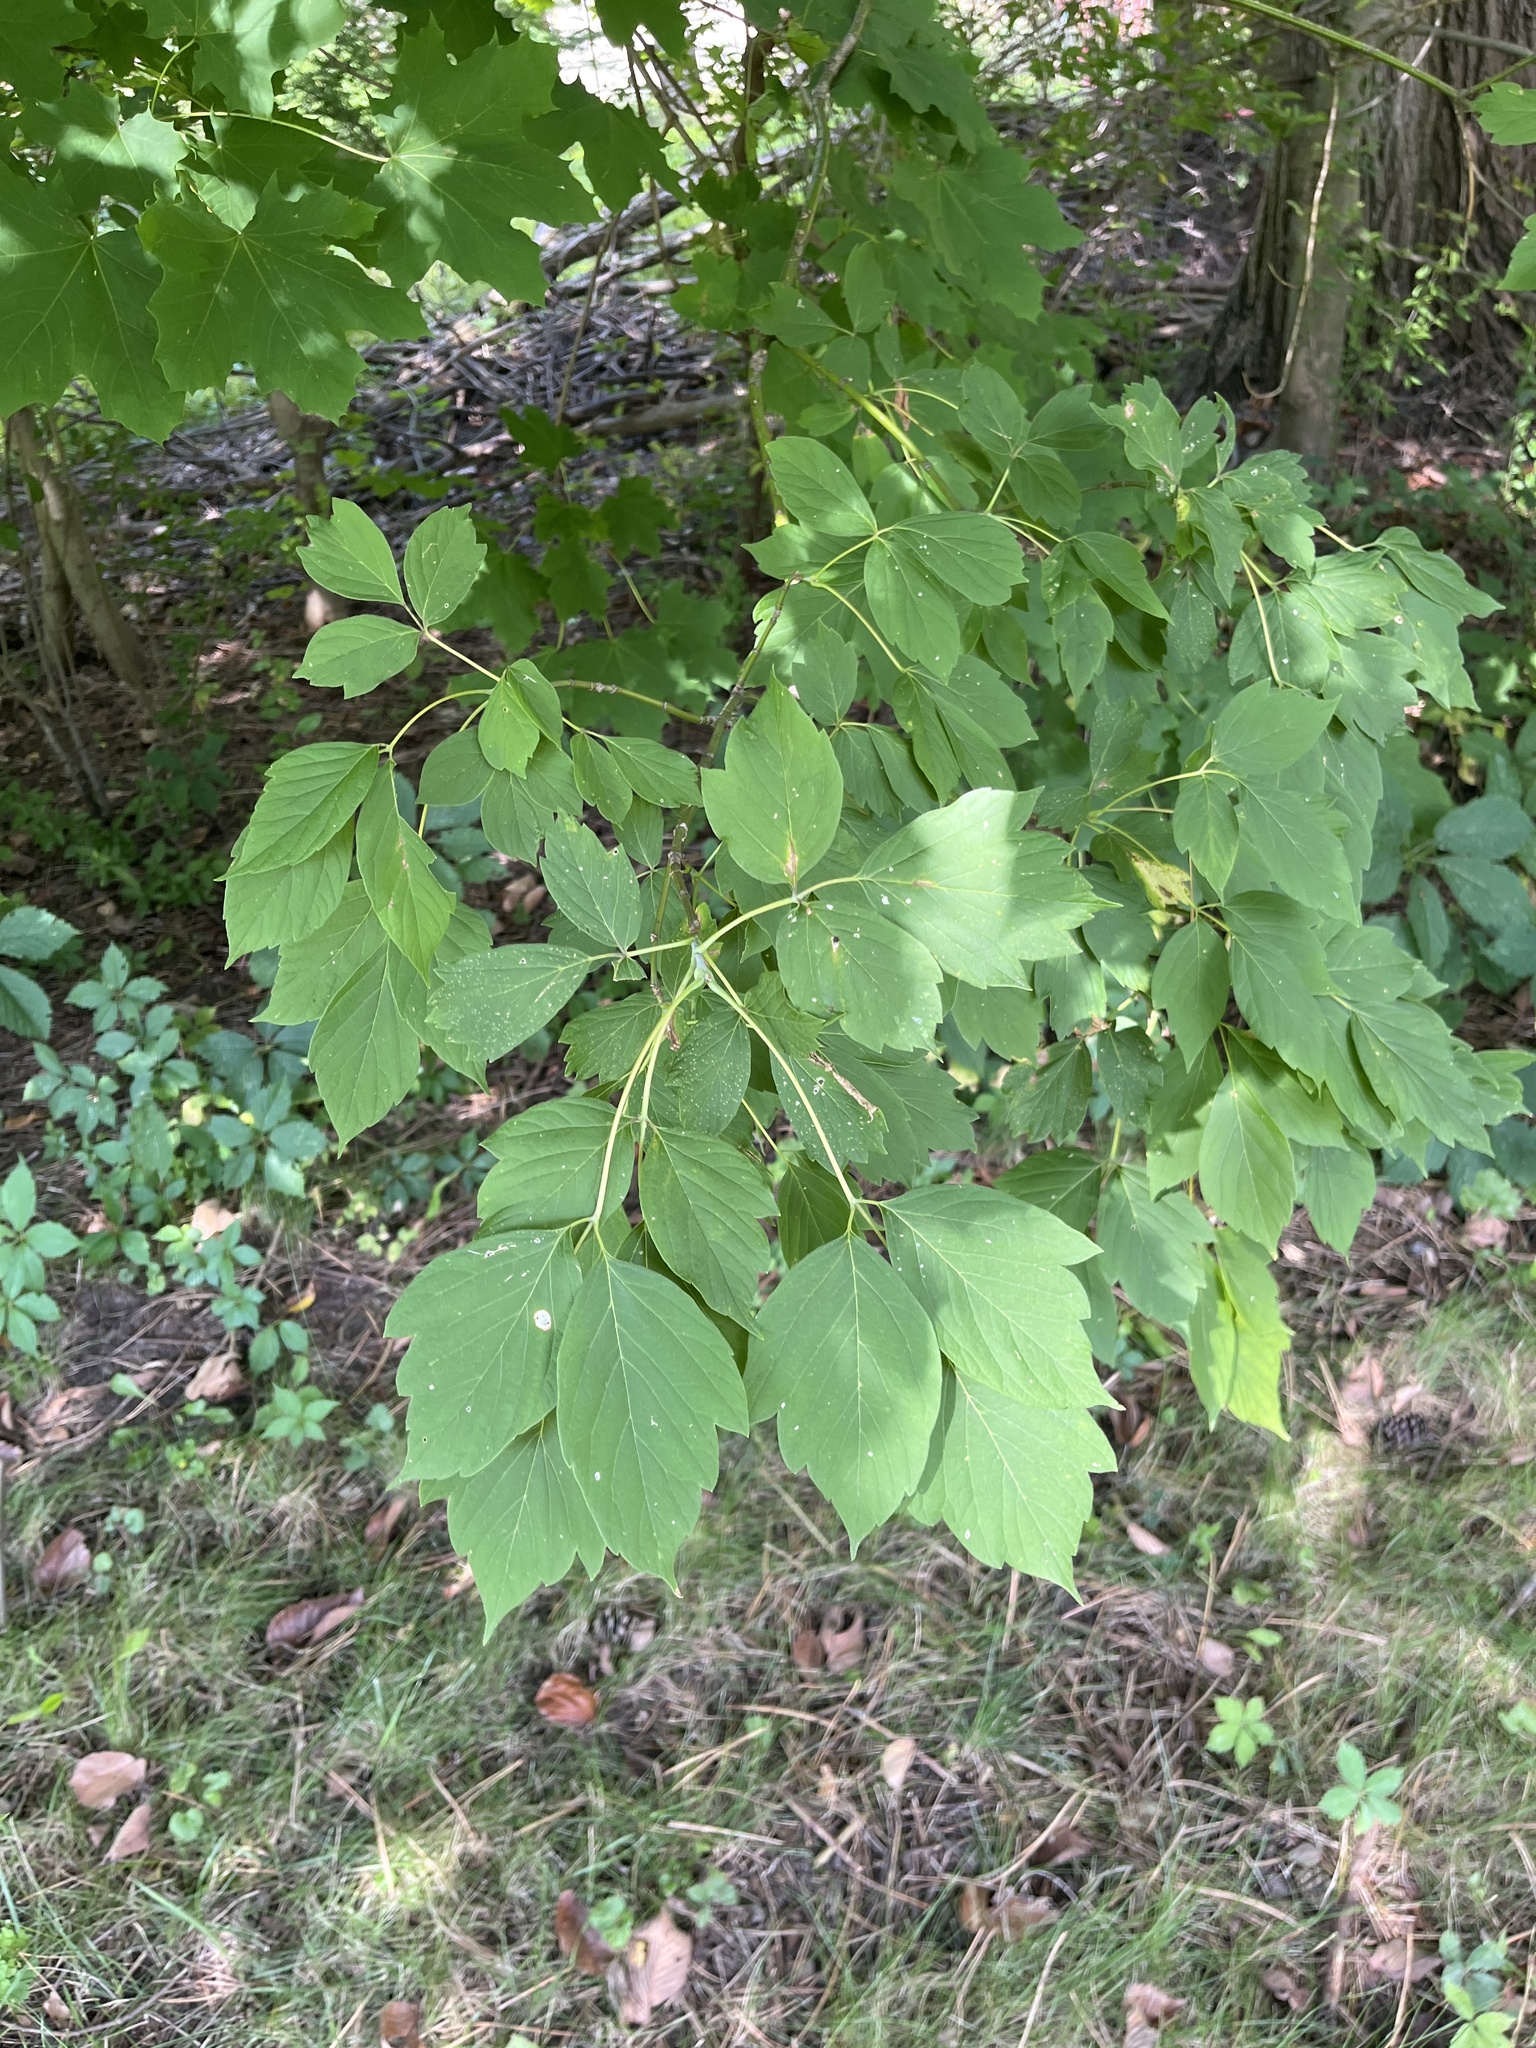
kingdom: Plantae
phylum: Tracheophyta
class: Magnoliopsida
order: Sapindales
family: Sapindaceae
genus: Acer
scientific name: Acer negundo
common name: Ashleaf maple
